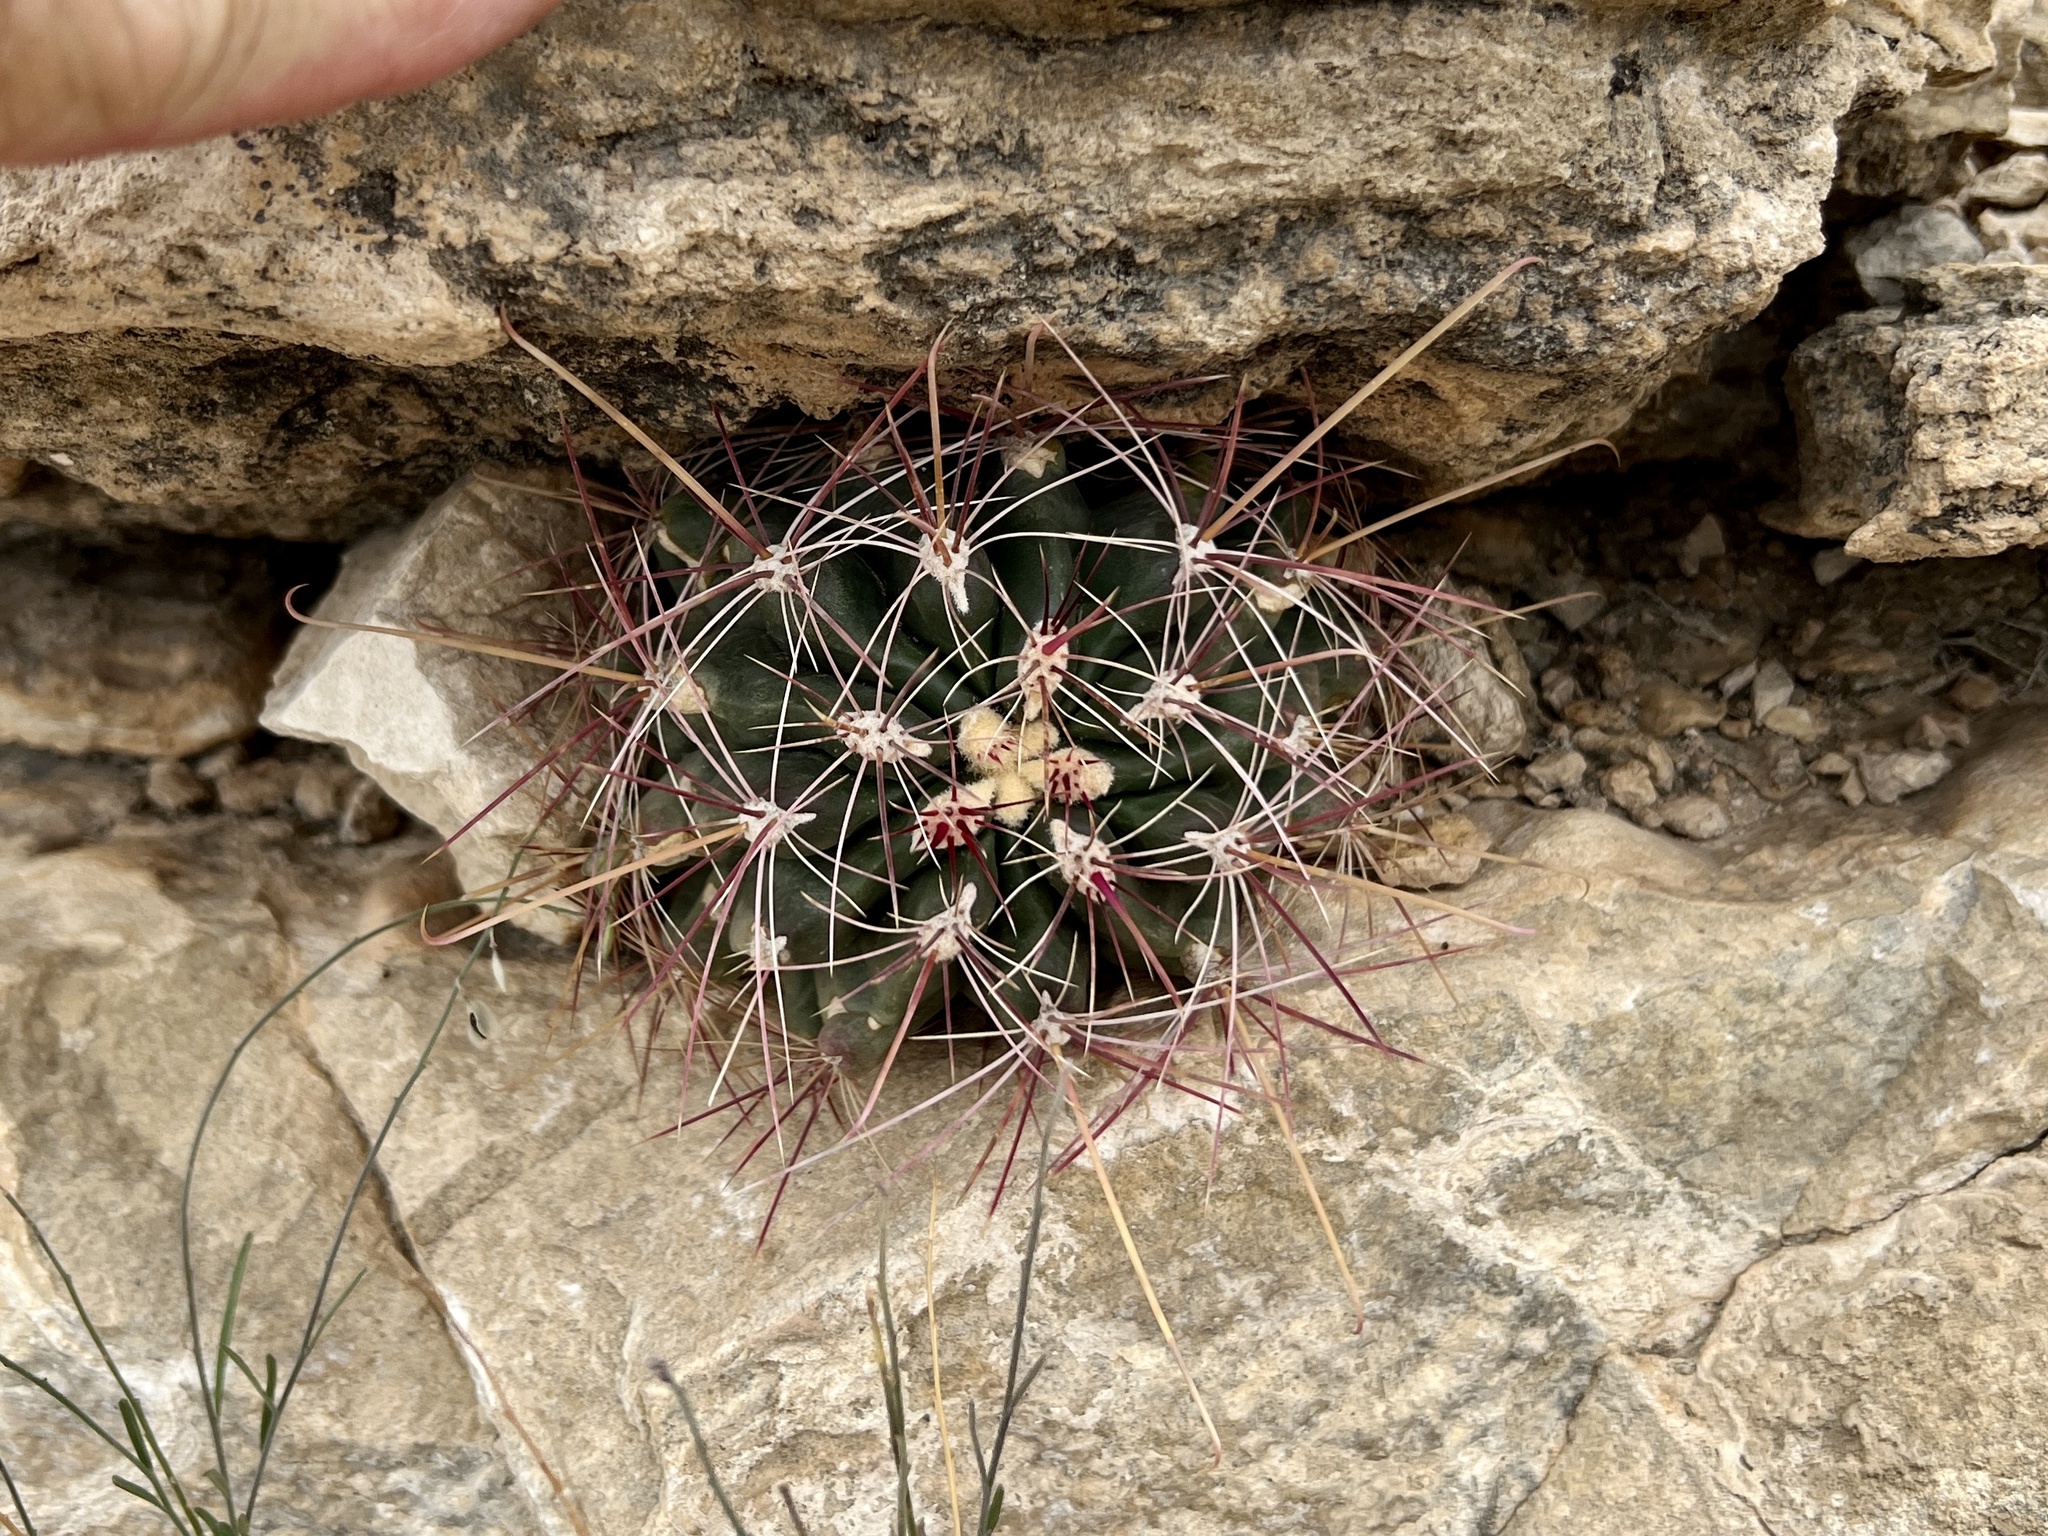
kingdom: Plantae
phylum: Tracheophyta
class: Magnoliopsida
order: Caryophyllales
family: Cactaceae
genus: Bisnaga
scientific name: Bisnaga hamatacantha
